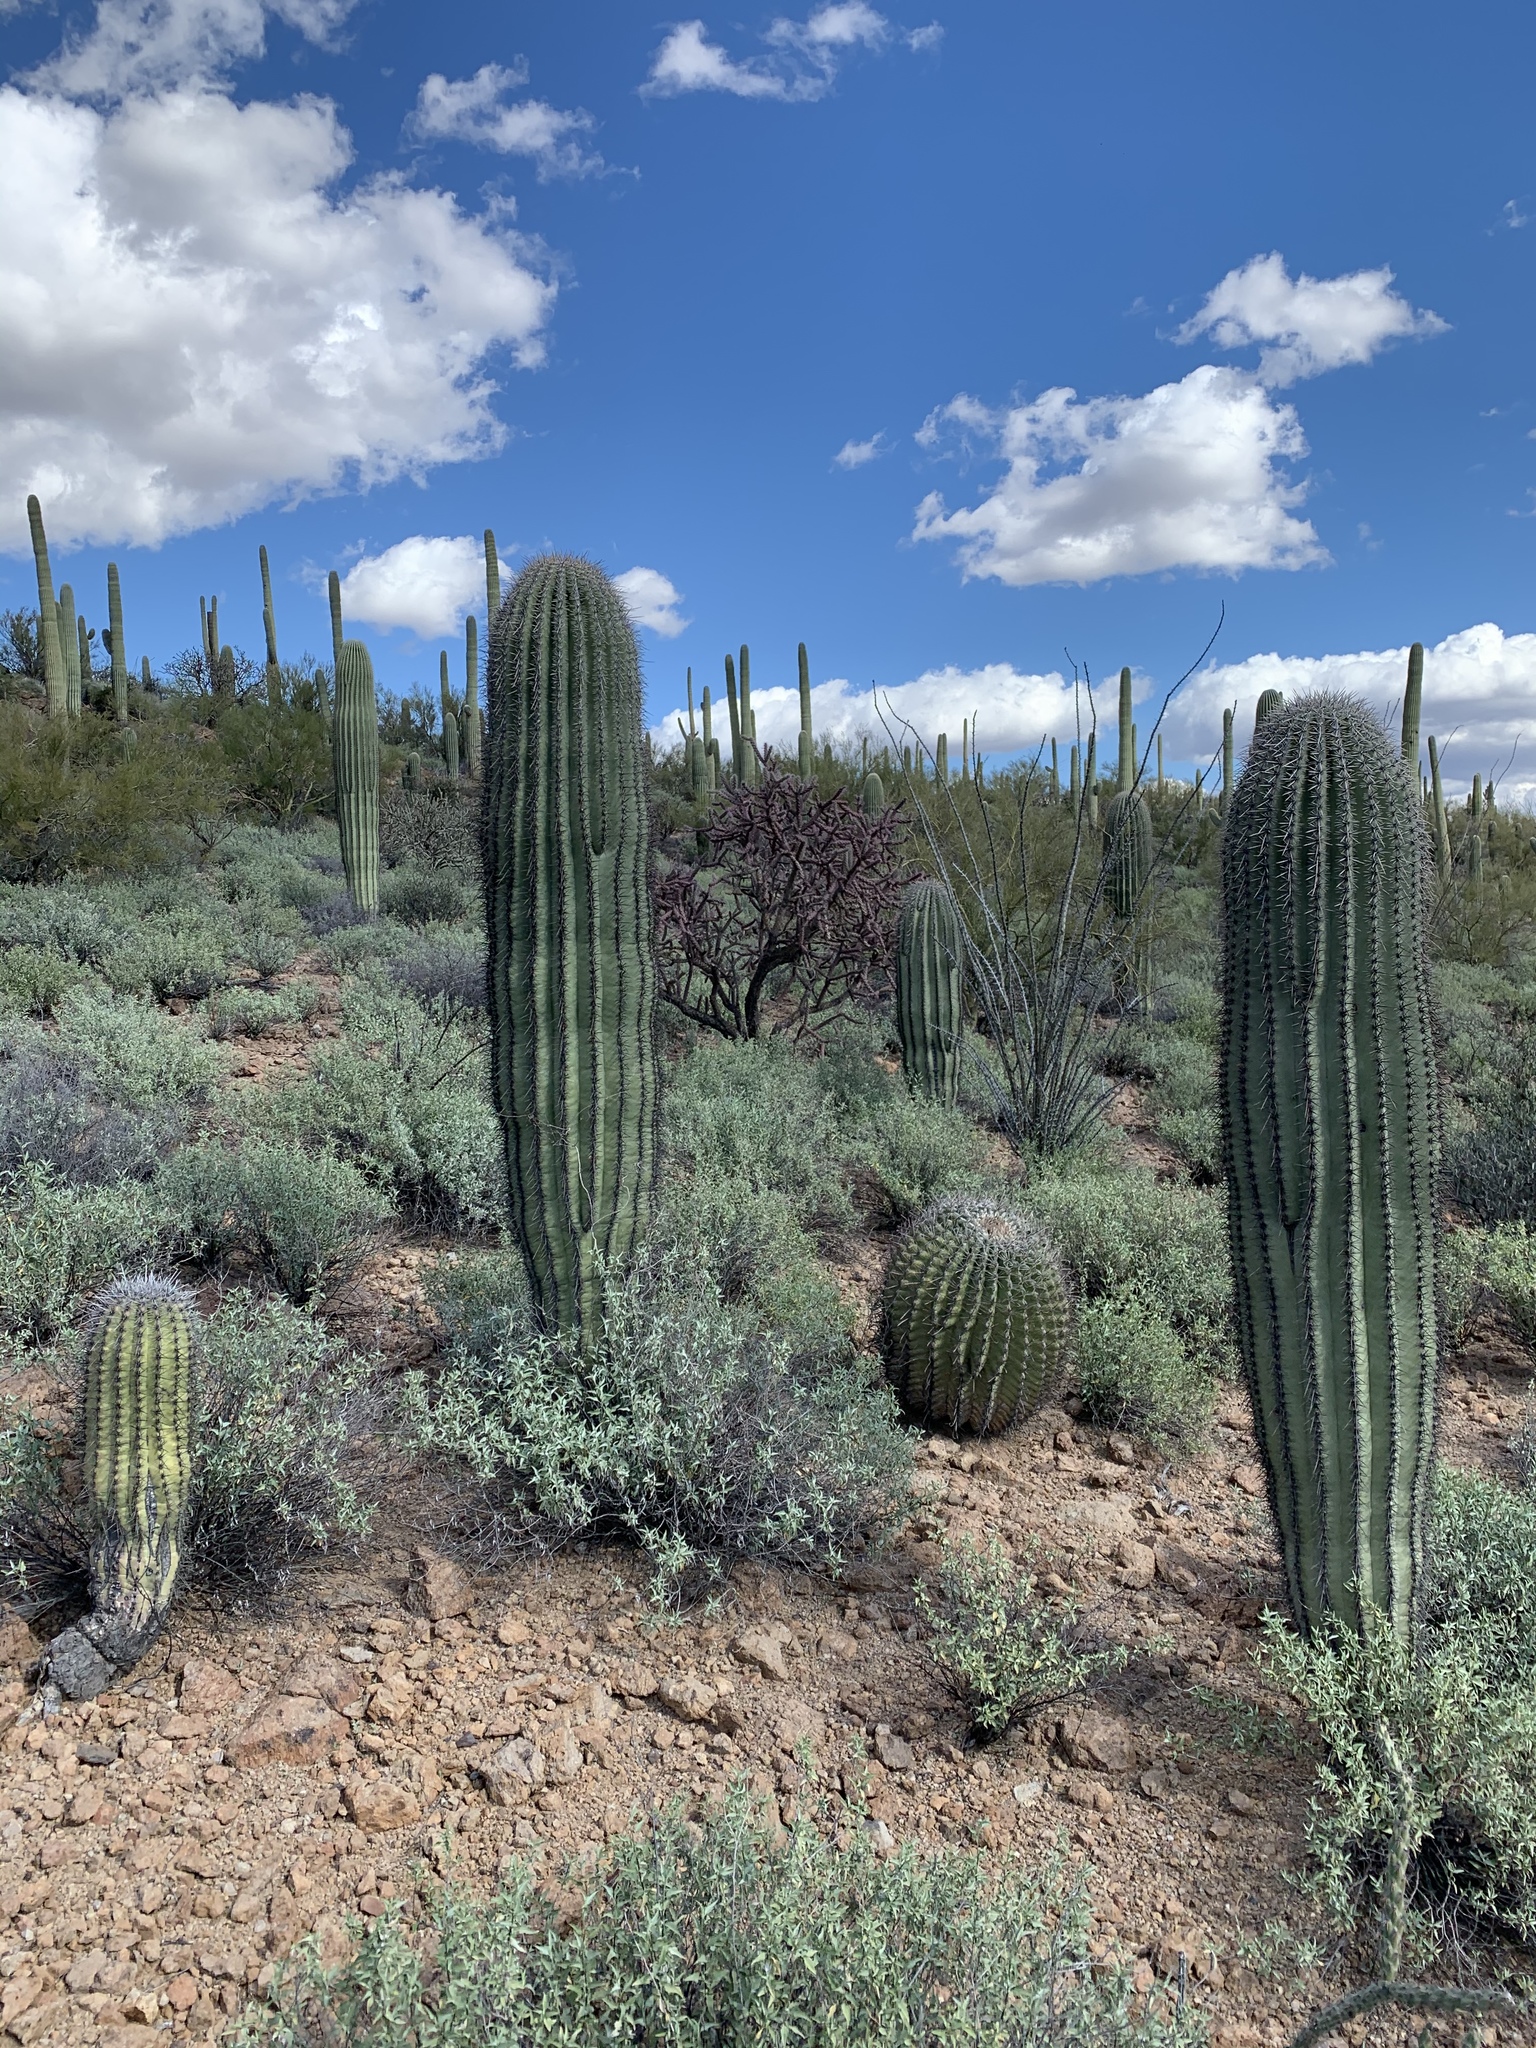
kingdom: Plantae
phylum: Tracheophyta
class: Magnoliopsida
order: Caryophyllales
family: Cactaceae
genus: Carnegiea
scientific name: Carnegiea gigantea
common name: Saguaro
